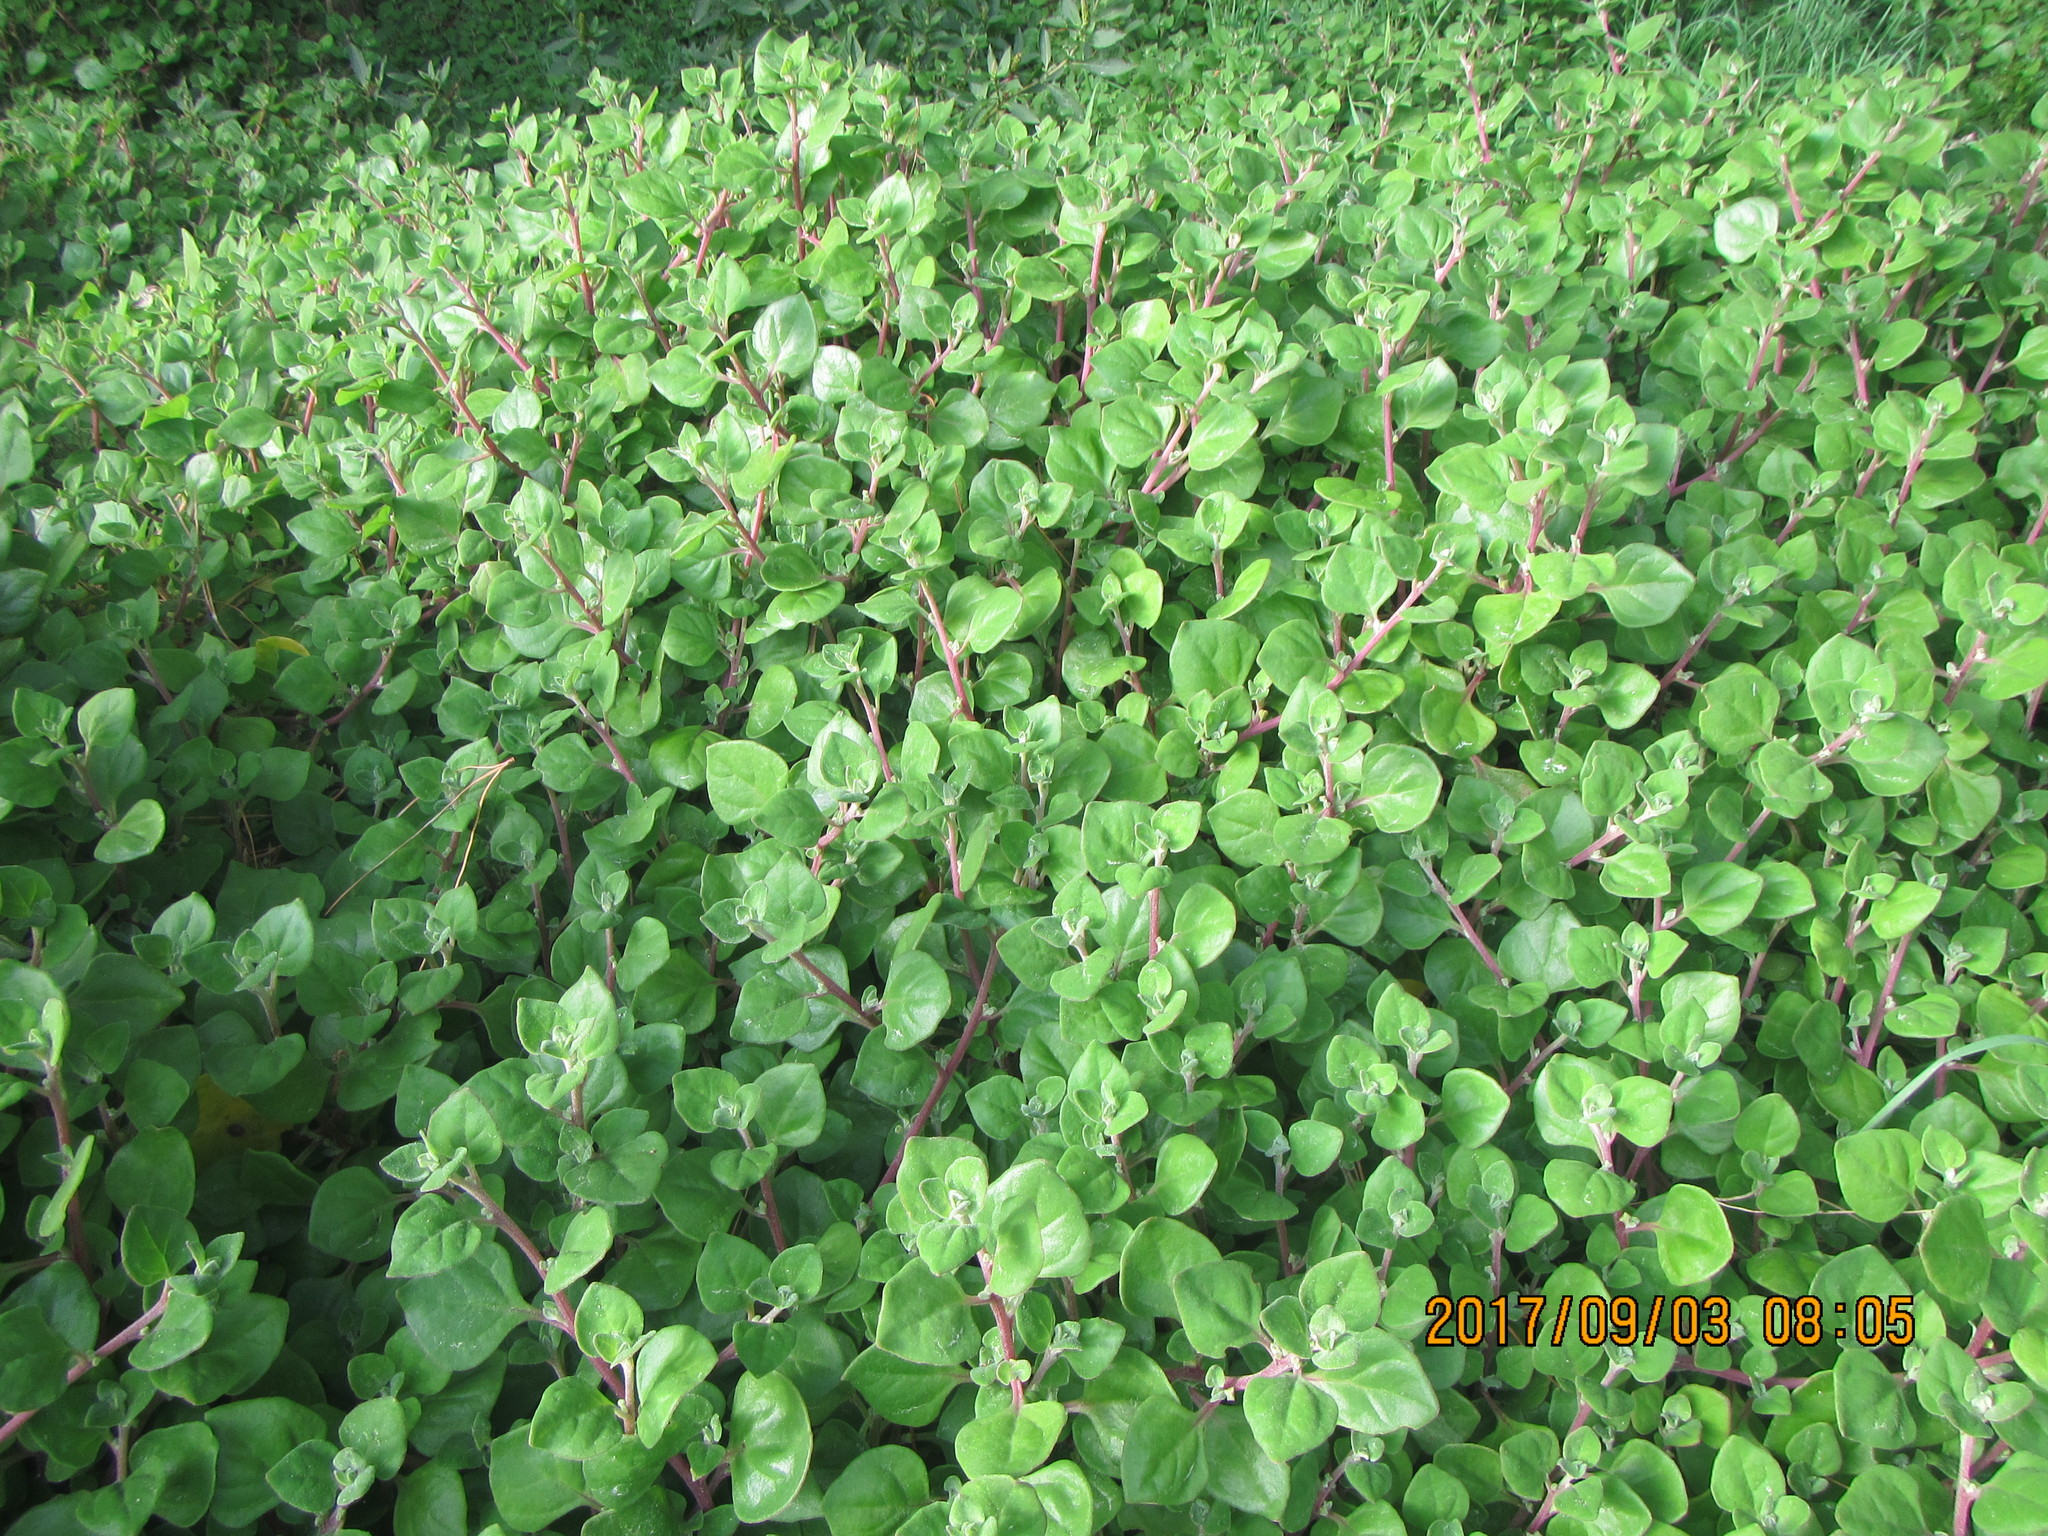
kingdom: Plantae
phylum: Tracheophyta
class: Magnoliopsida
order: Caryophyllales
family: Aizoaceae
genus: Tetragonia
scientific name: Tetragonia implexicoma
